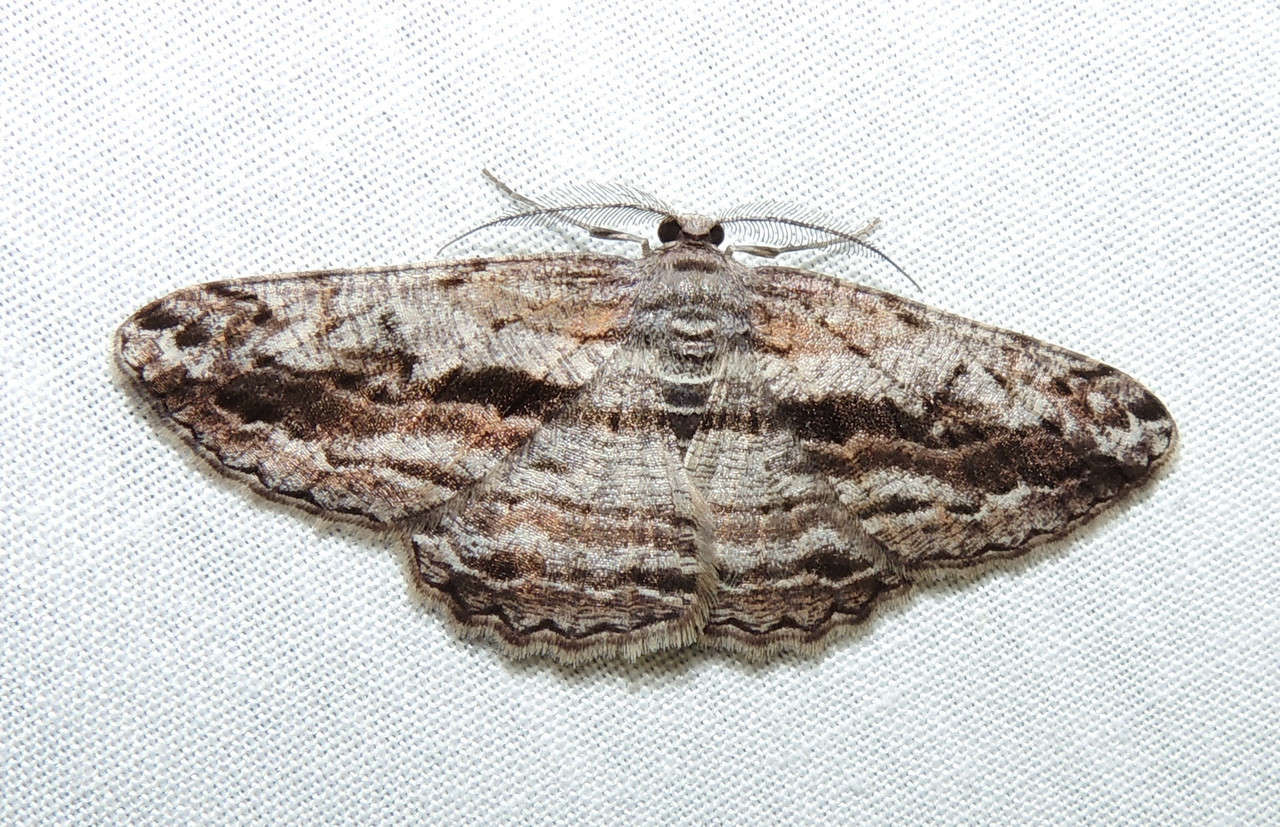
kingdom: Animalia
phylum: Arthropoda
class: Insecta
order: Lepidoptera
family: Geometridae
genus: Scioglyptis
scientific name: Scioglyptis chionomera
